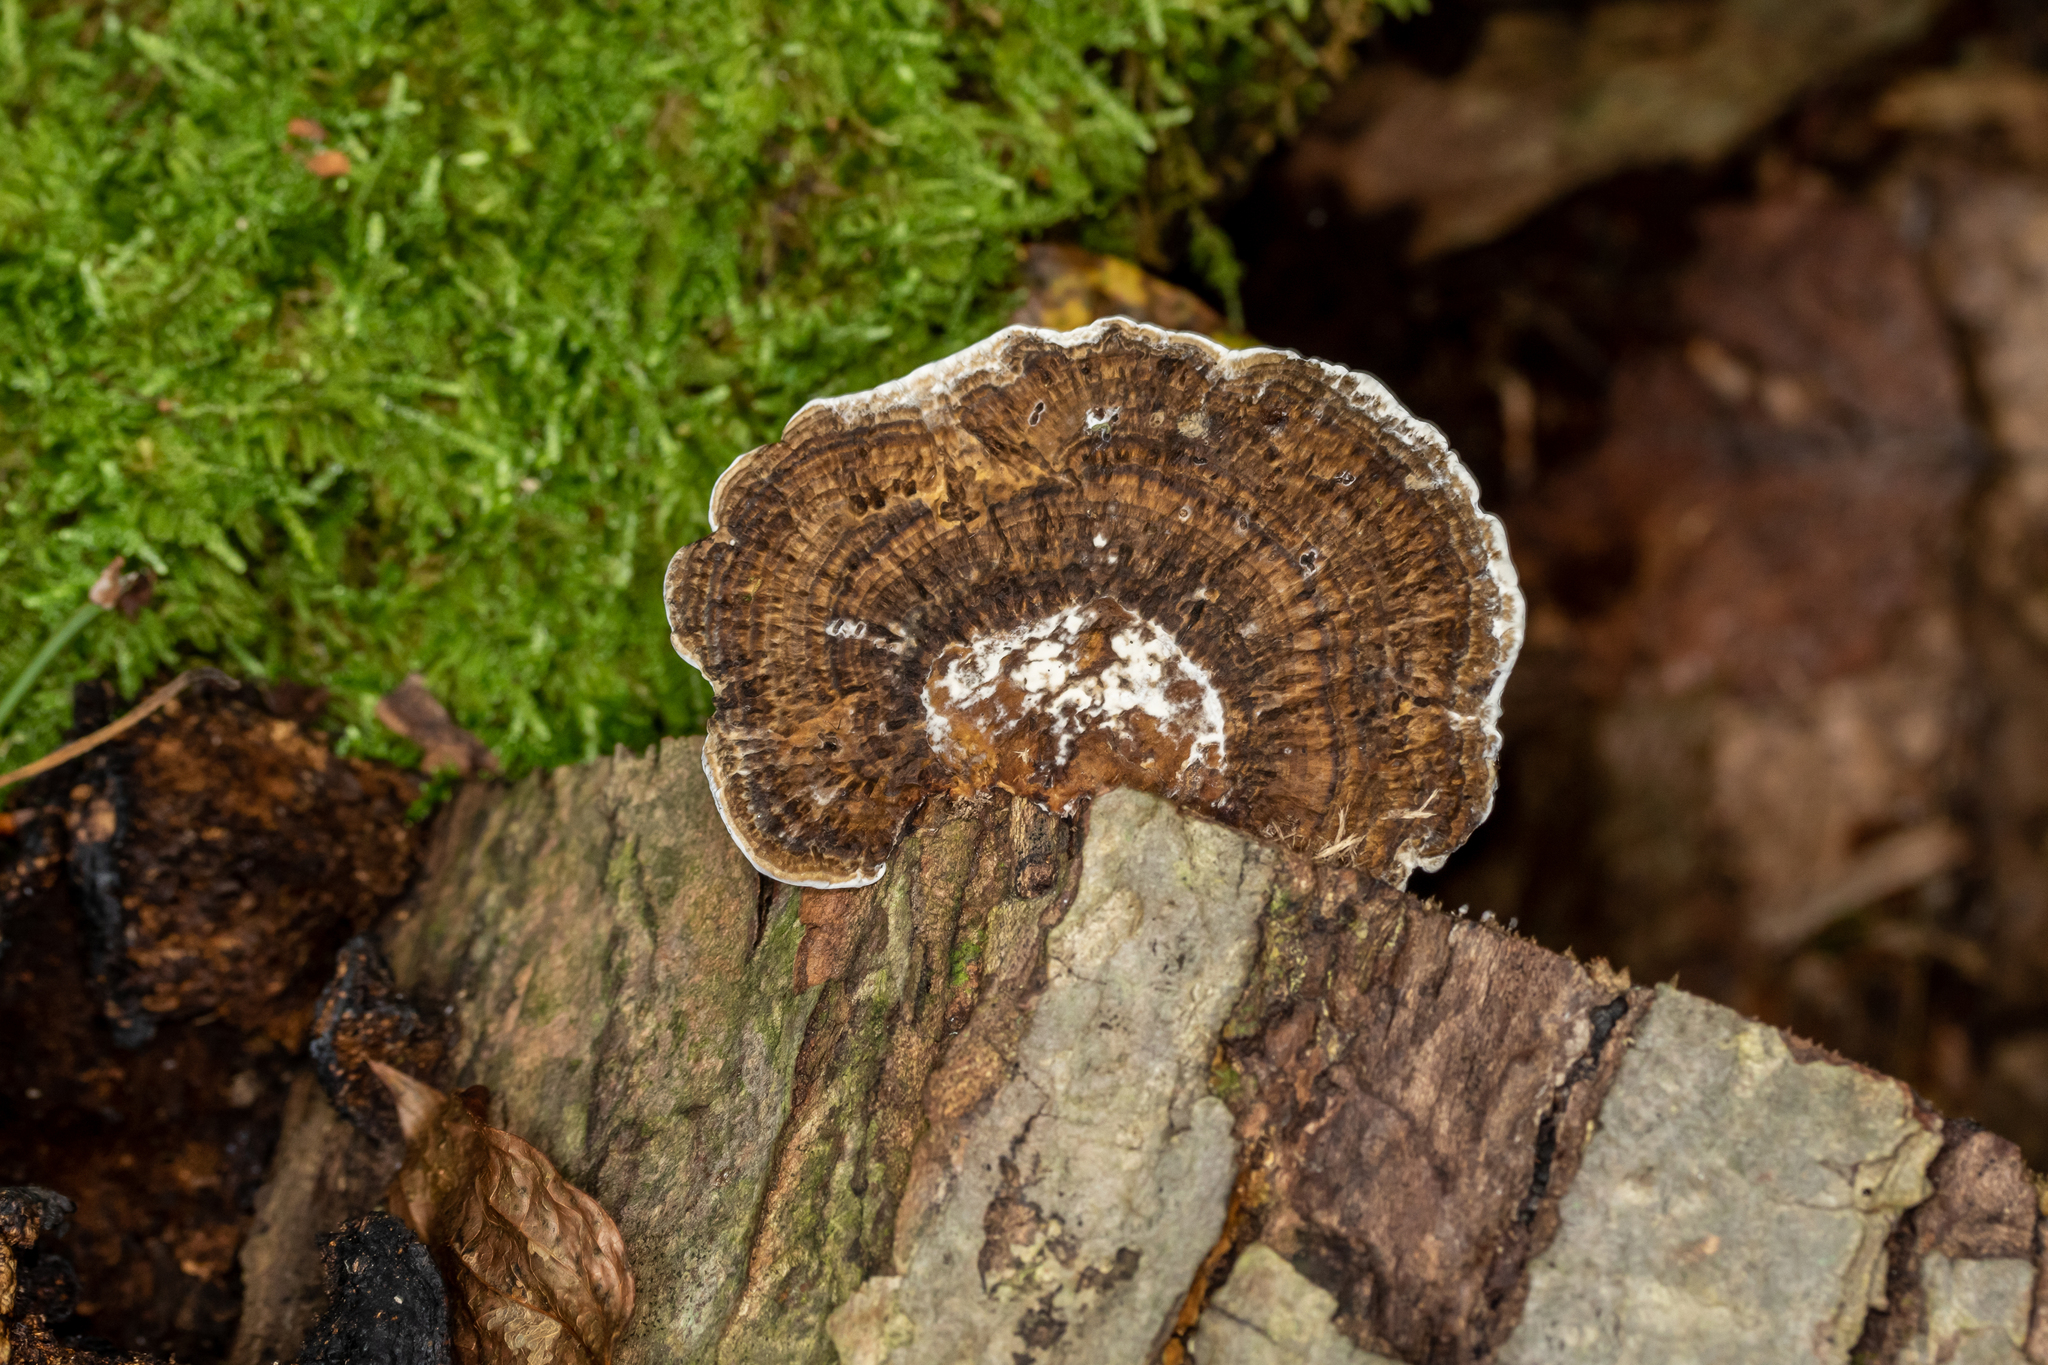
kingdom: Fungi
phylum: Basidiomycota
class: Agaricomycetes
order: Polyporales
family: Polyporaceae
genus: Daedaleopsis
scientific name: Daedaleopsis confragosa
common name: Blushing bracket
